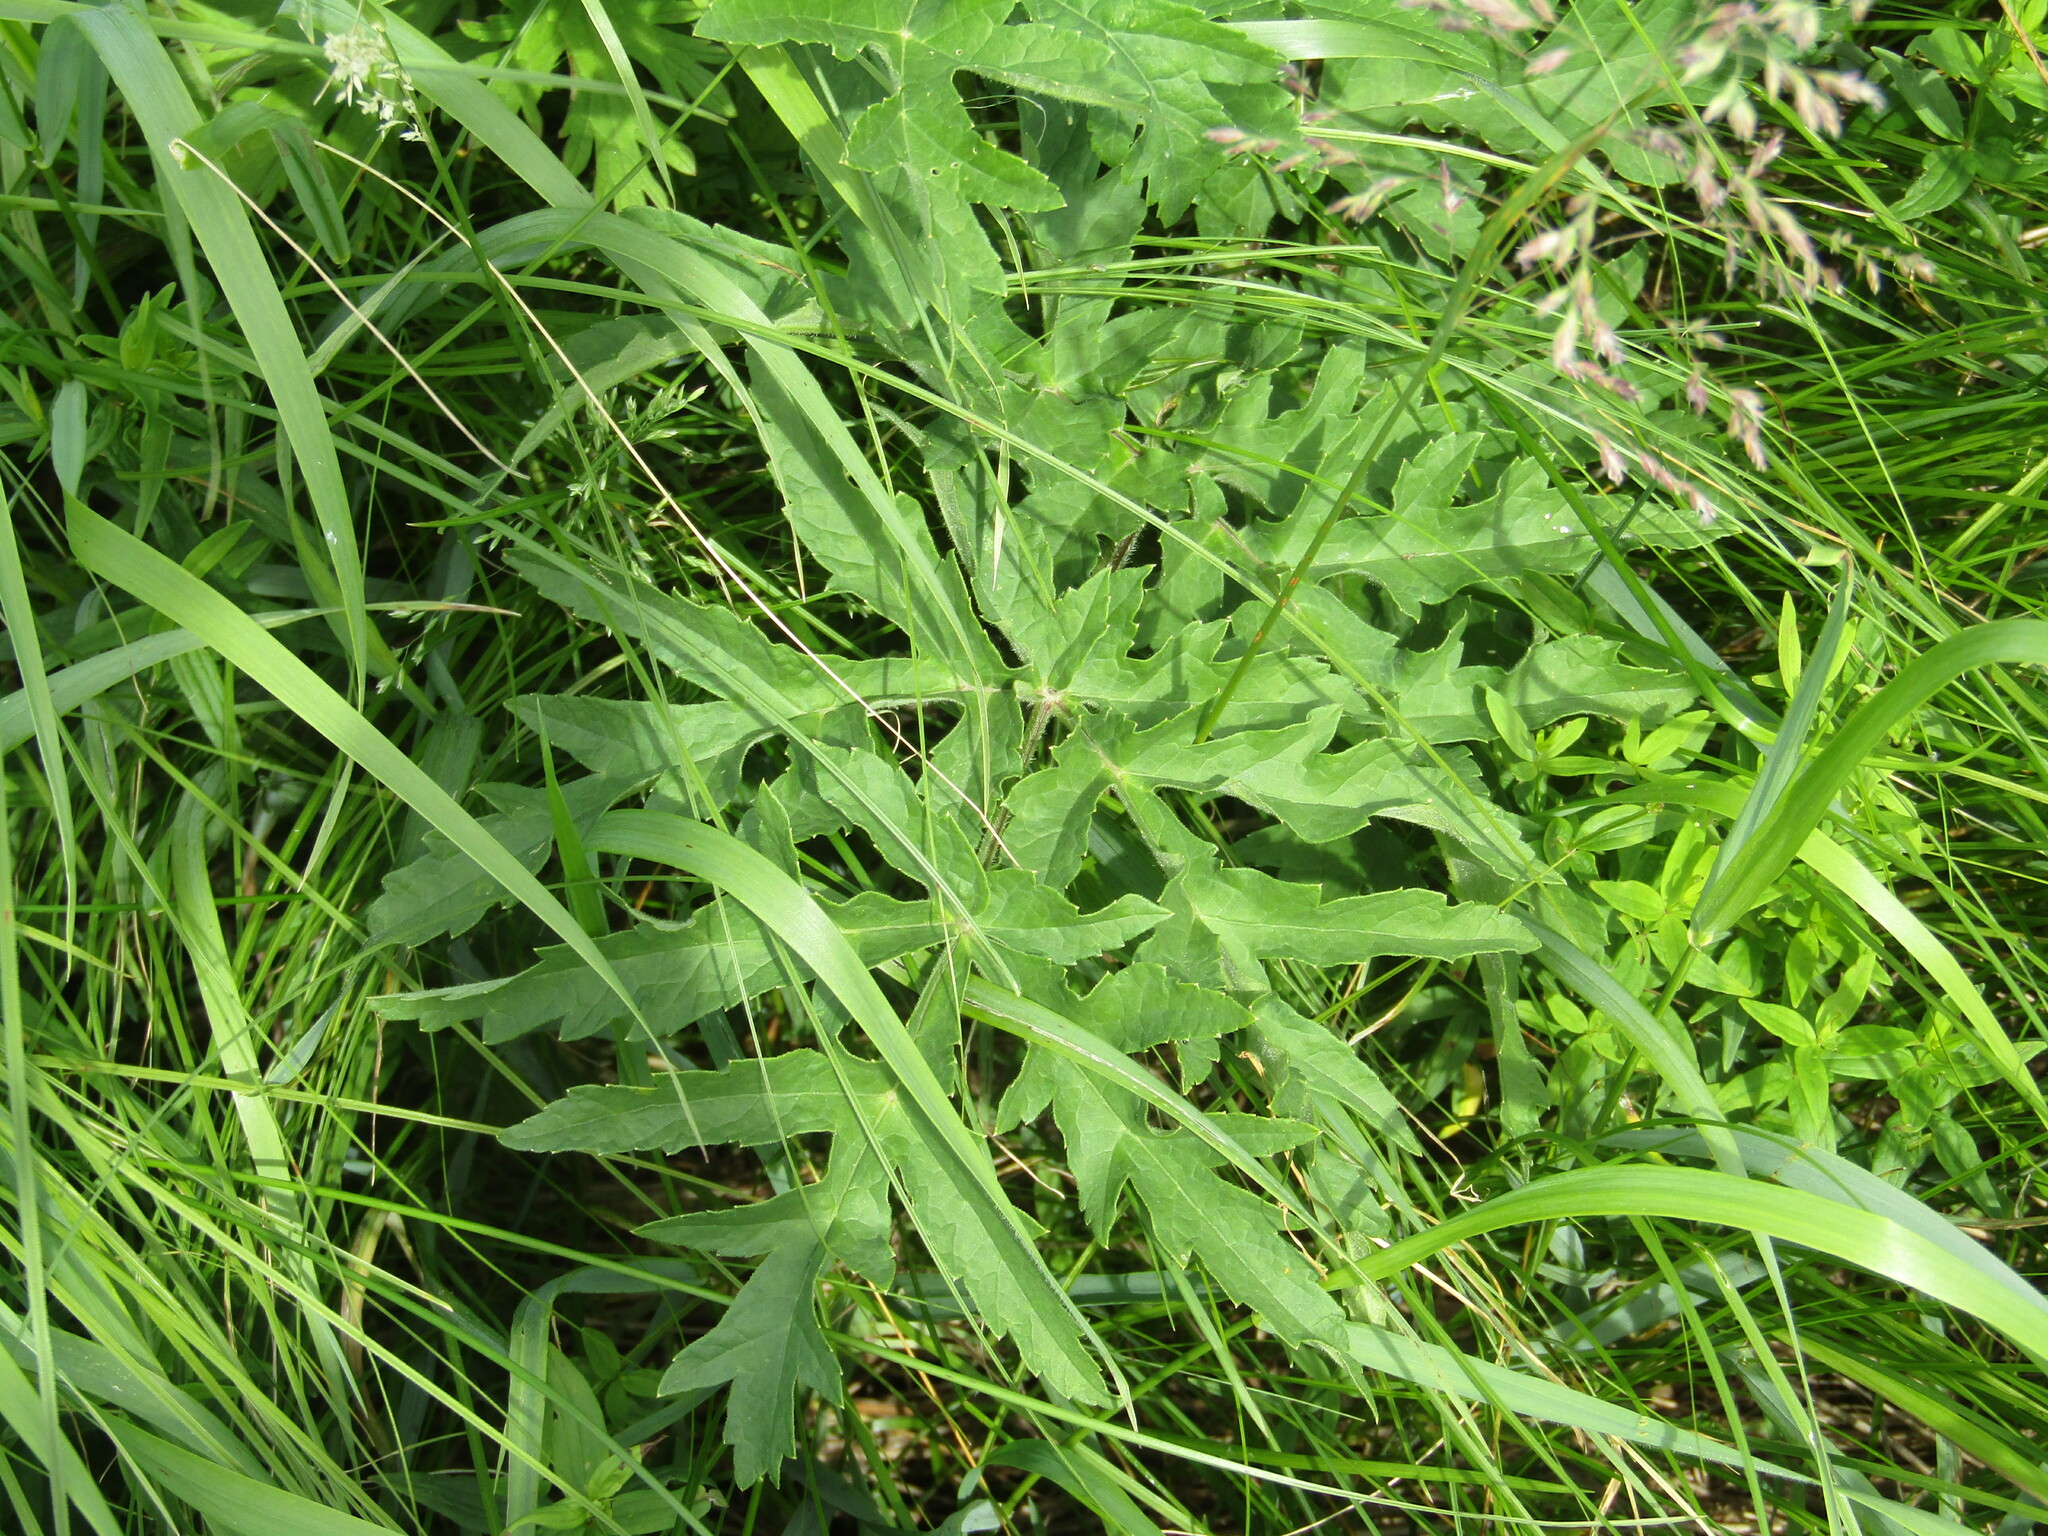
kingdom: Plantae
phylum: Tracheophyta
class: Magnoliopsida
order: Apiales
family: Apiaceae
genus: Heracleum
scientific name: Heracleum sphondylium
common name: Hogweed
